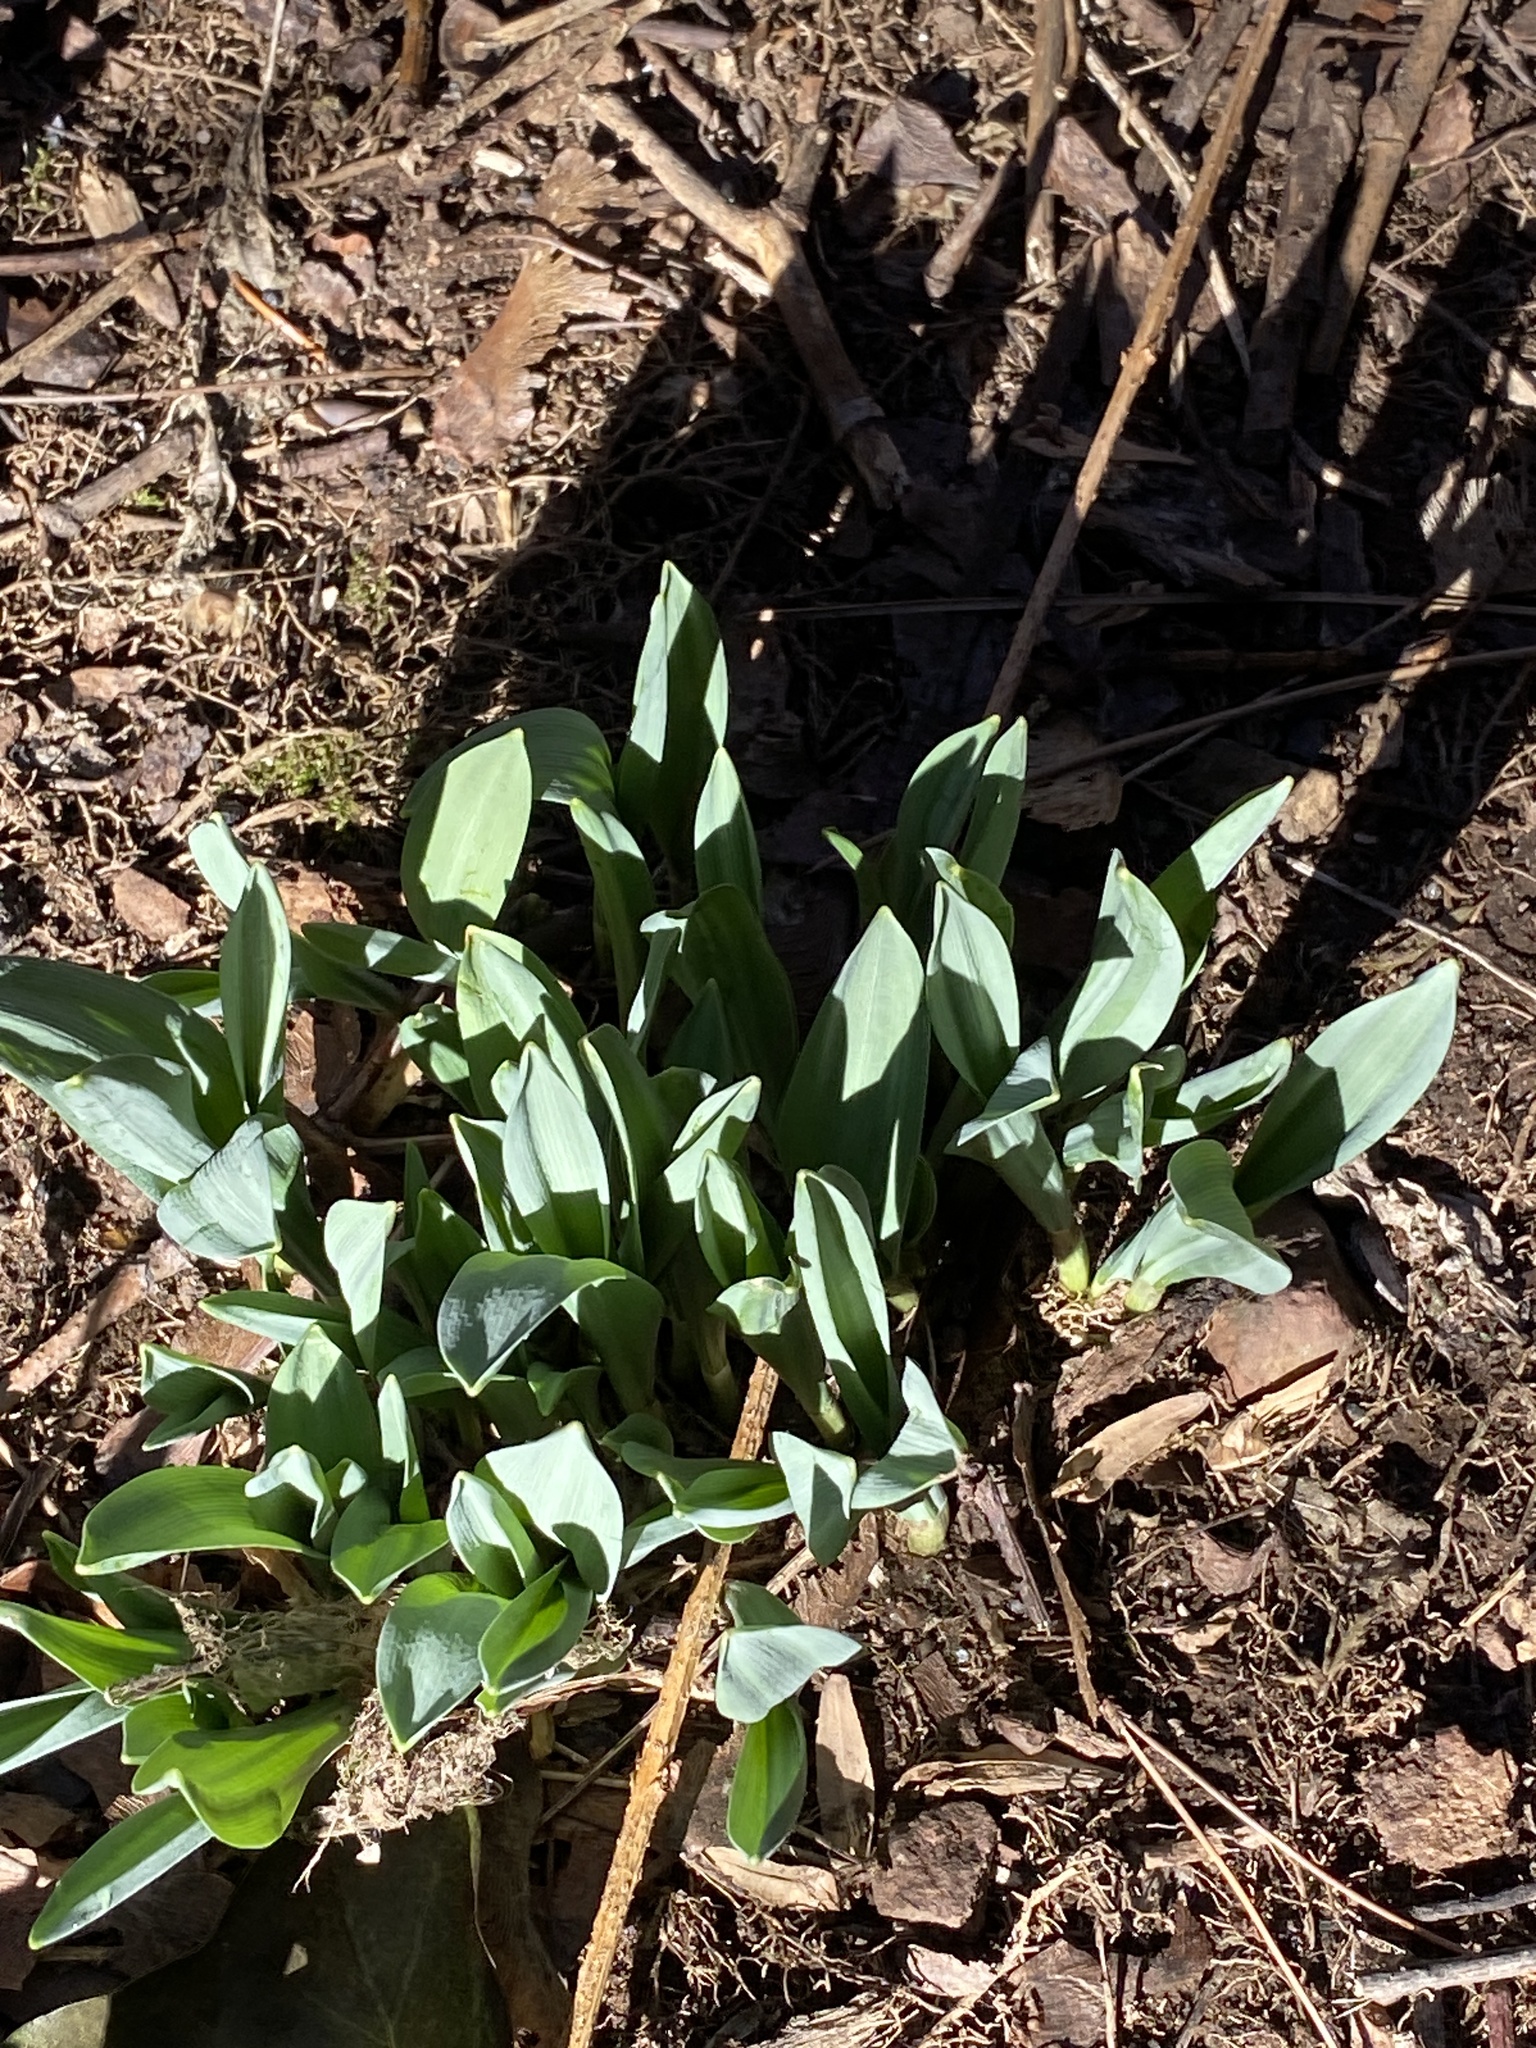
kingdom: Plantae
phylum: Tracheophyta
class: Liliopsida
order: Asparagales
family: Amaryllidaceae
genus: Galanthus
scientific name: Galanthus elwesii
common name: Greater snowdrop
